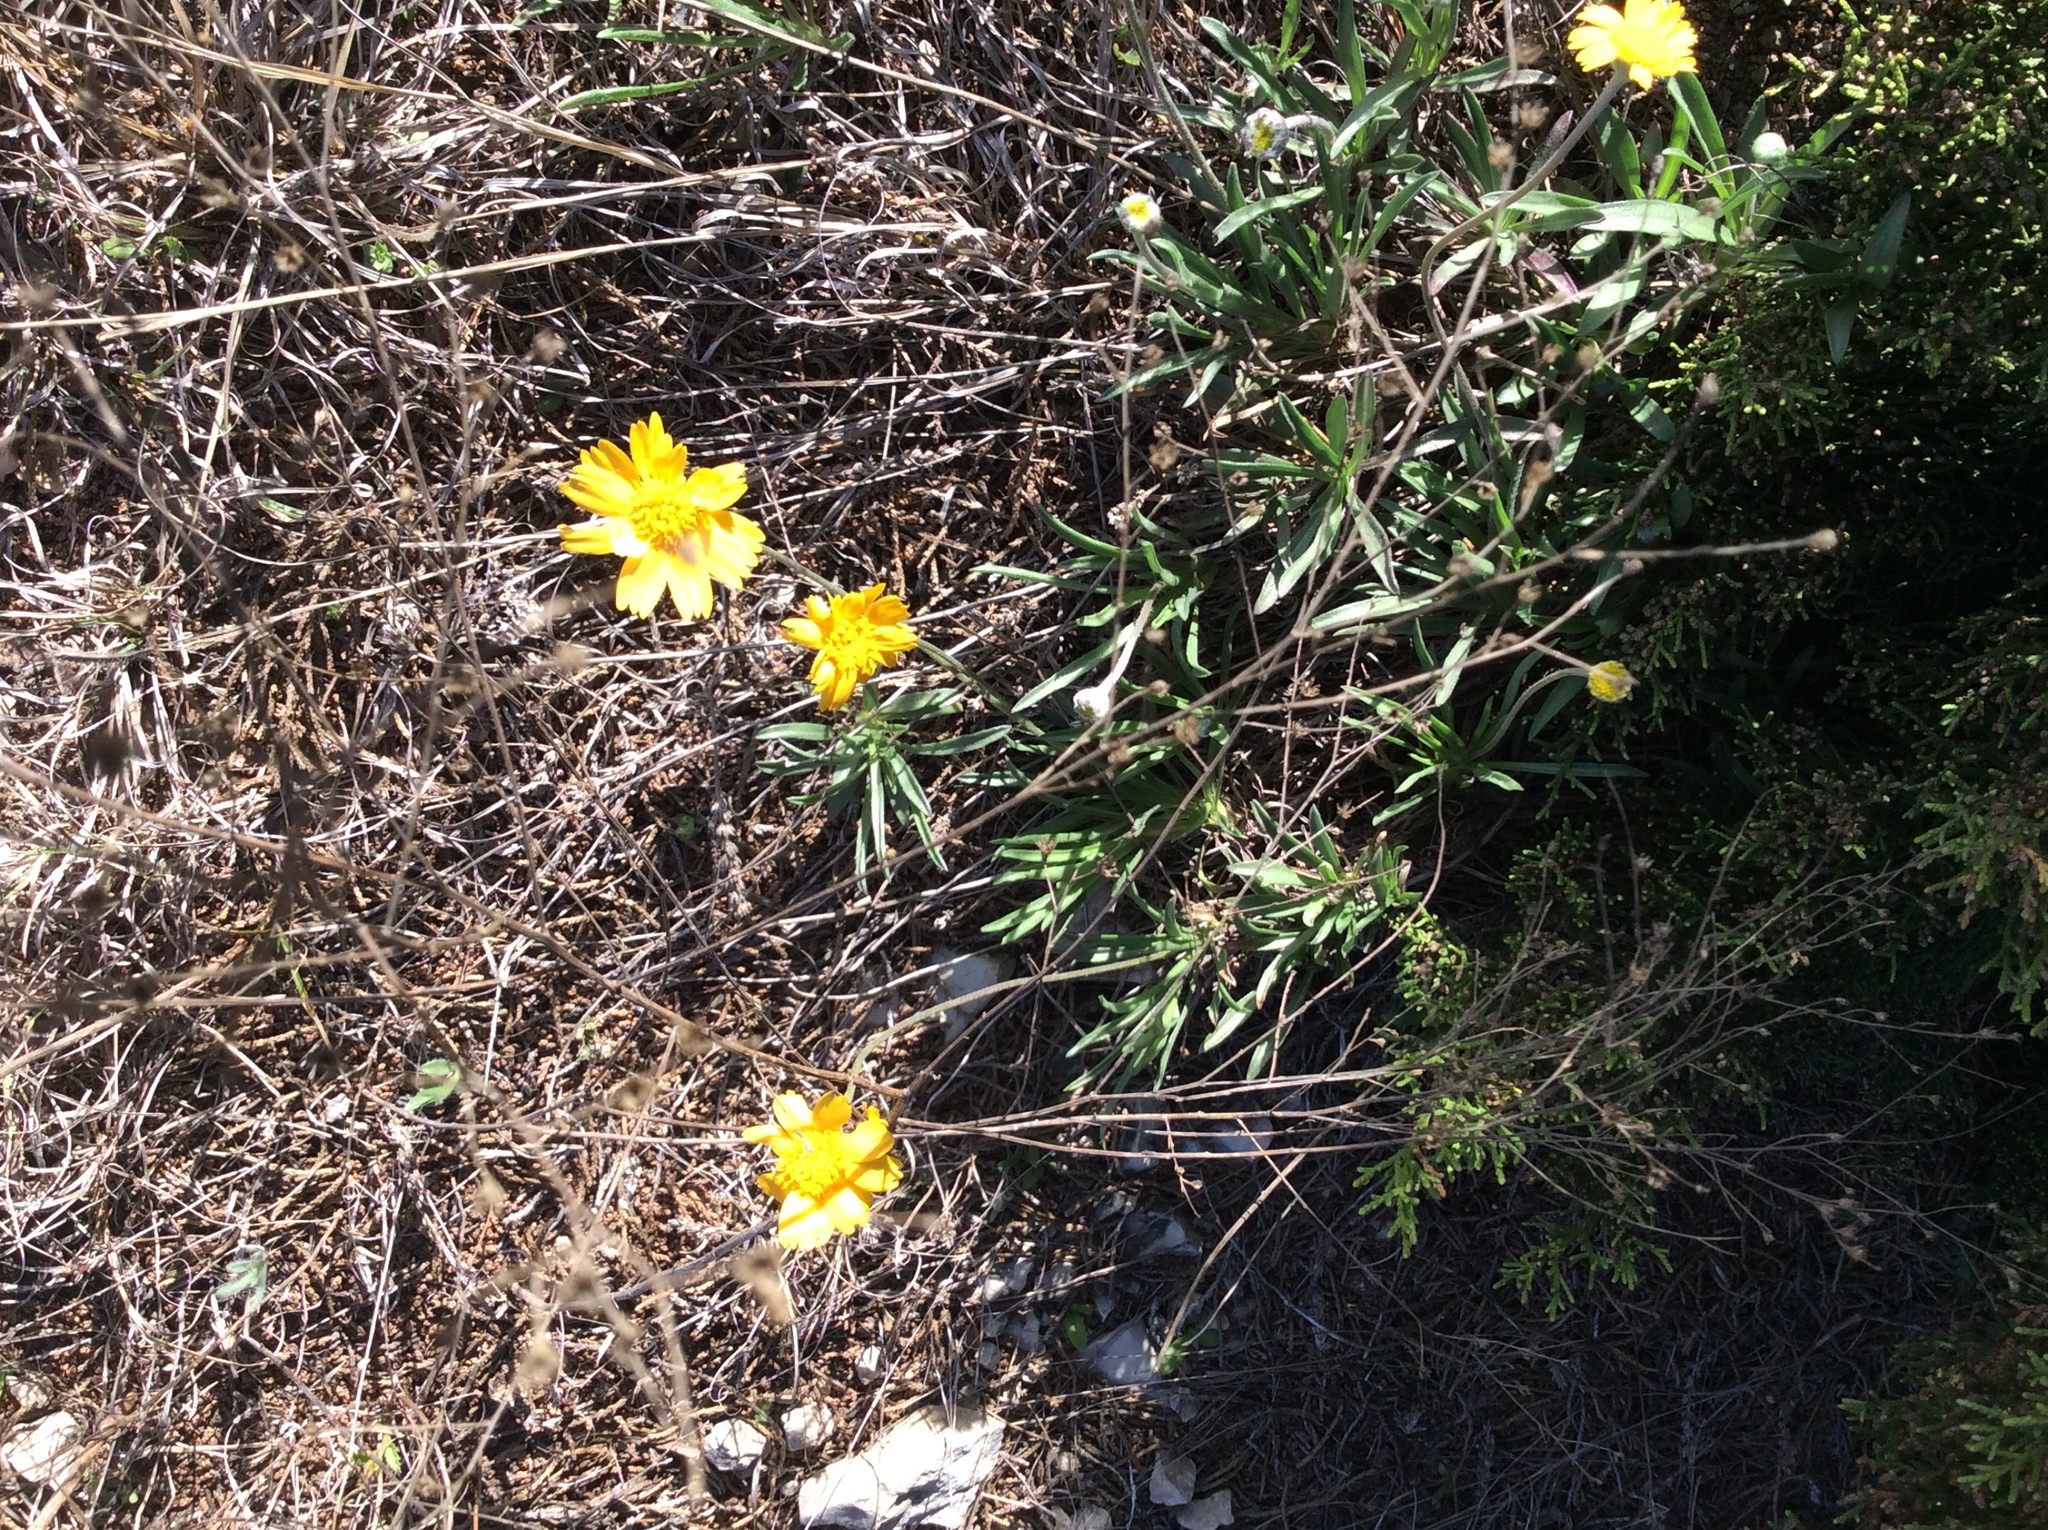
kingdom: Plantae
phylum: Tracheophyta
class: Magnoliopsida
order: Asterales
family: Asteraceae
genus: Tetraneuris
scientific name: Tetraneuris scaposa
